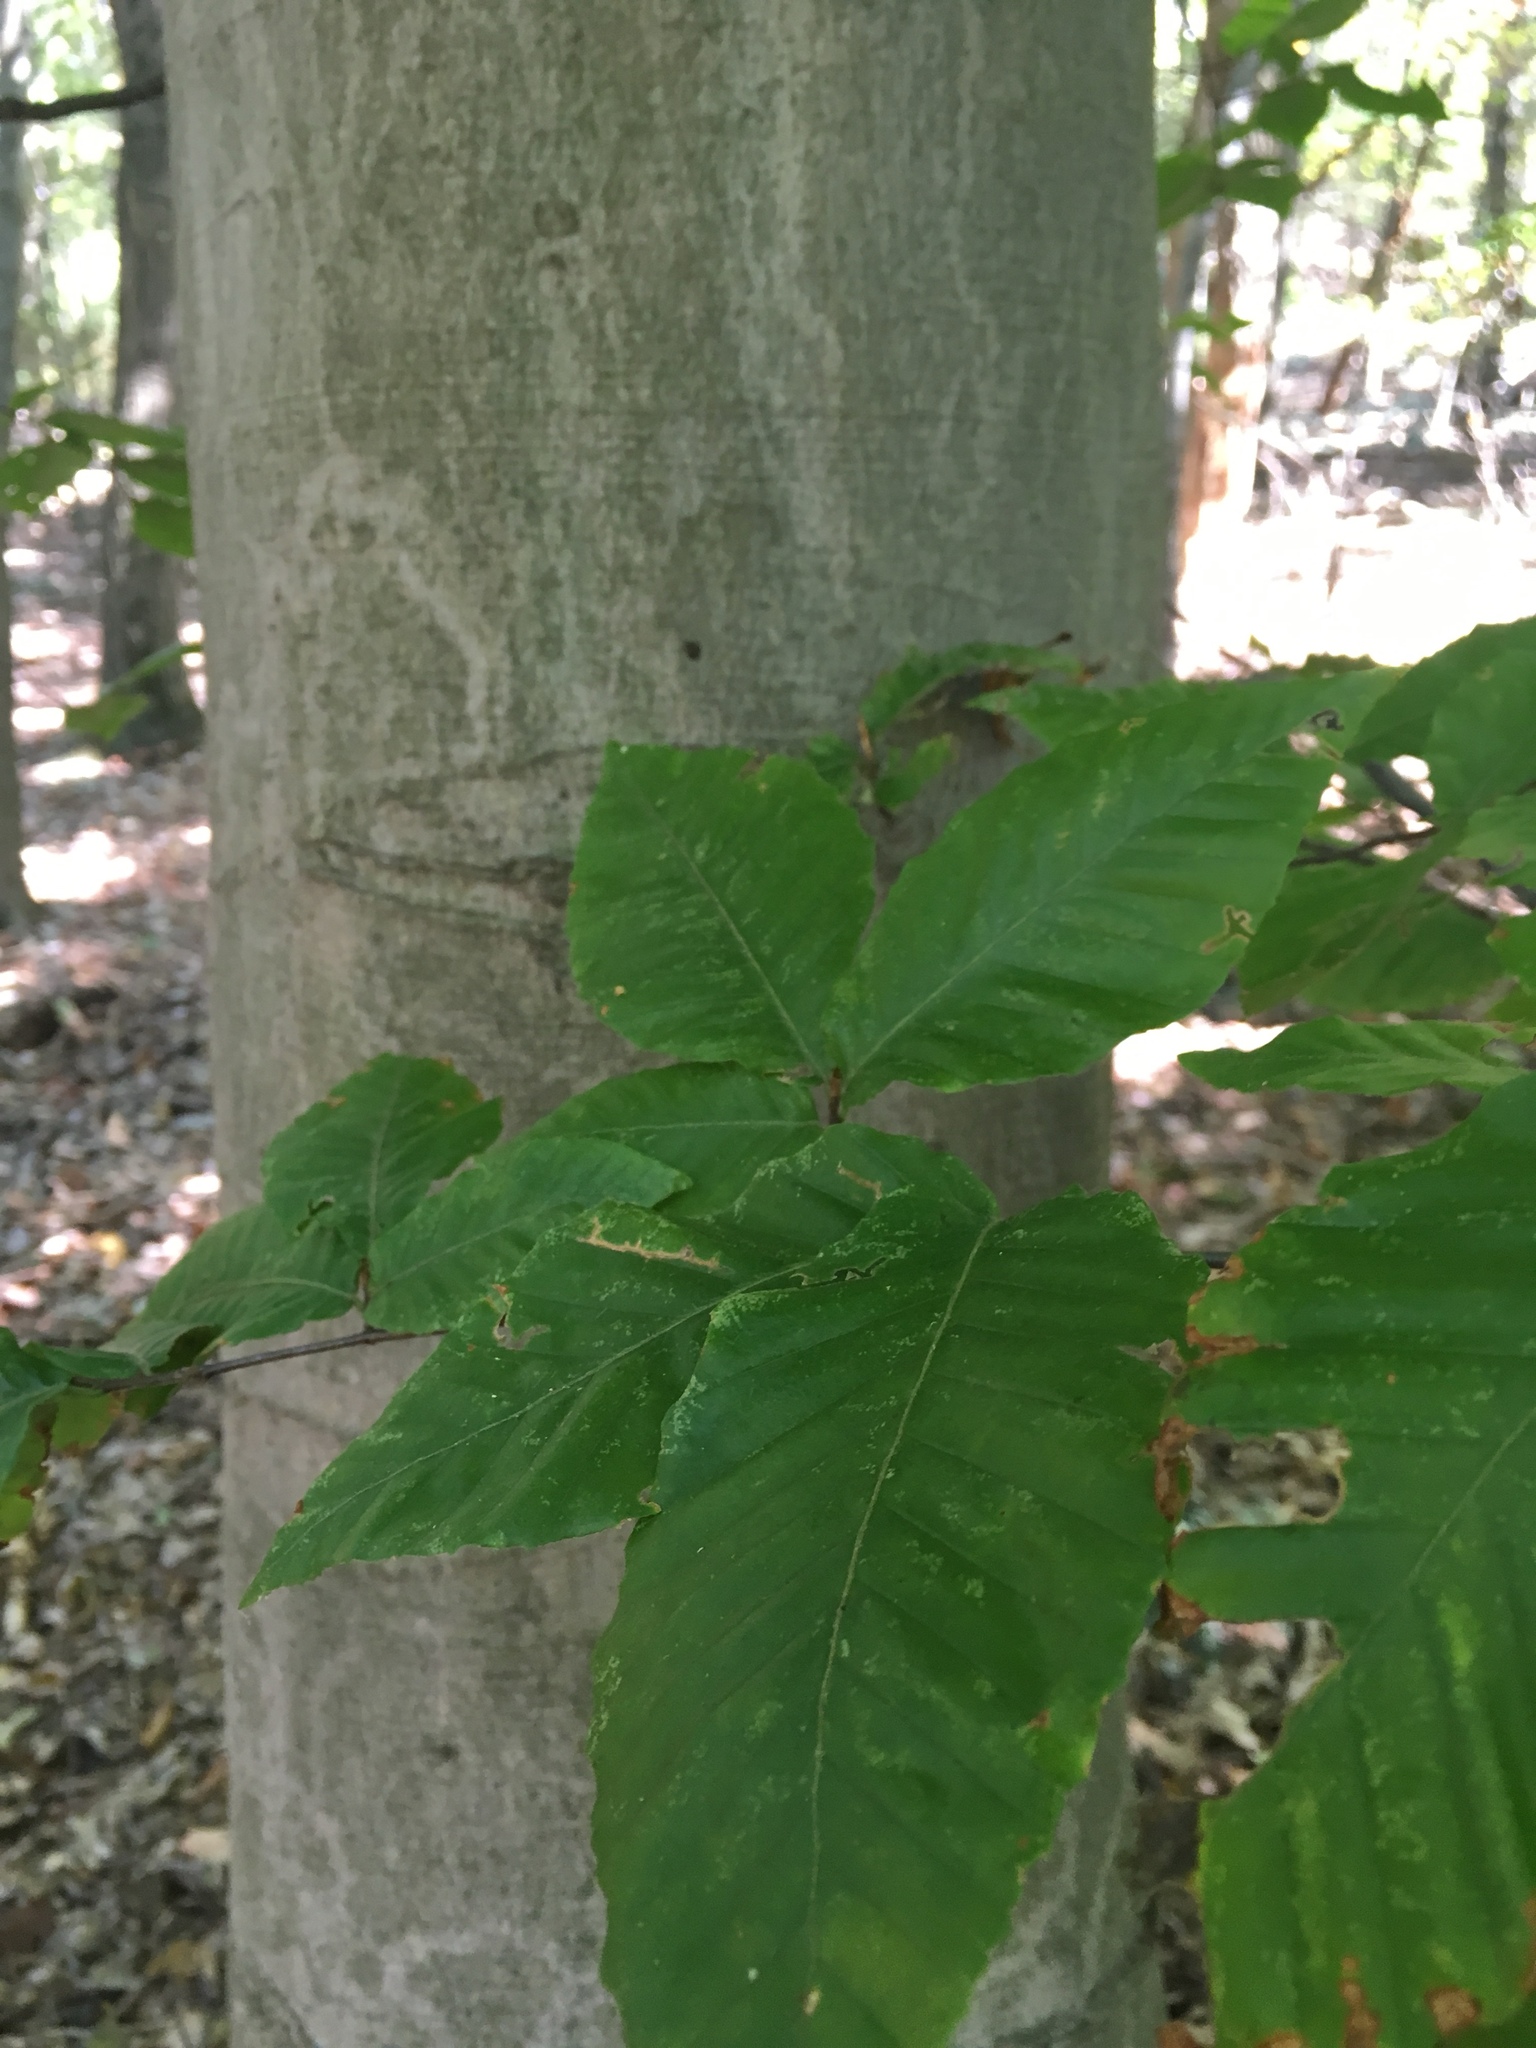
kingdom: Plantae
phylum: Tracheophyta
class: Magnoliopsida
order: Fagales
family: Fagaceae
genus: Fagus
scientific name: Fagus grandifolia
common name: American beech
